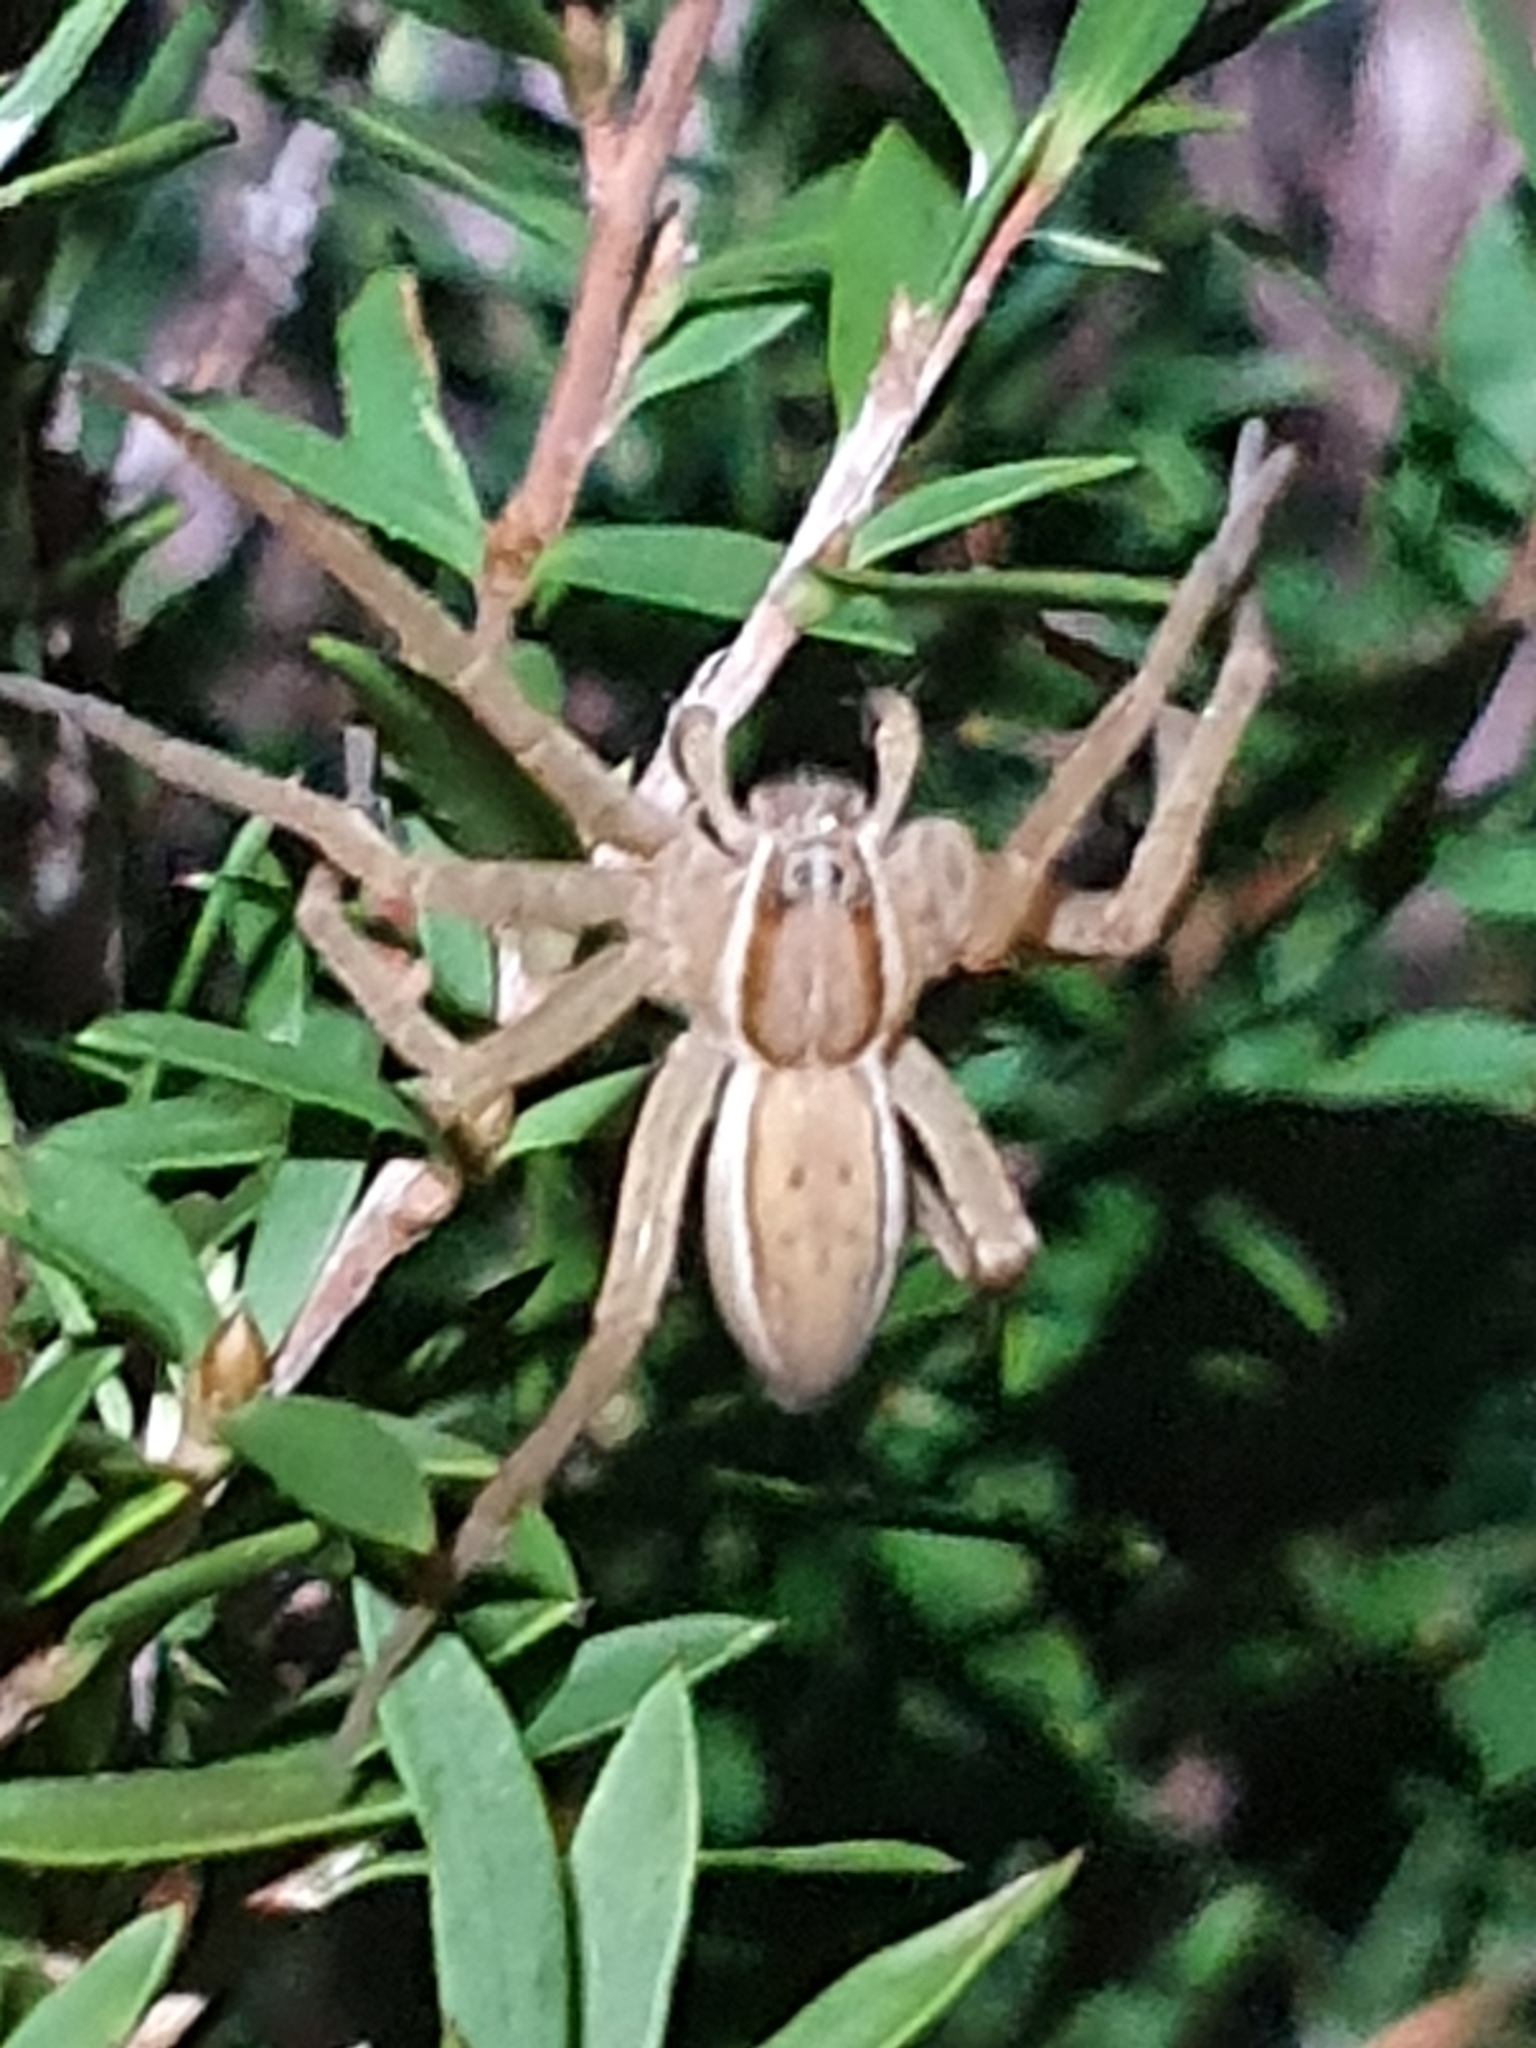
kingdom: Animalia
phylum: Arthropoda
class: Arachnida
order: Araneae
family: Pisauridae
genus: Dolomedes
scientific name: Dolomedes minor
